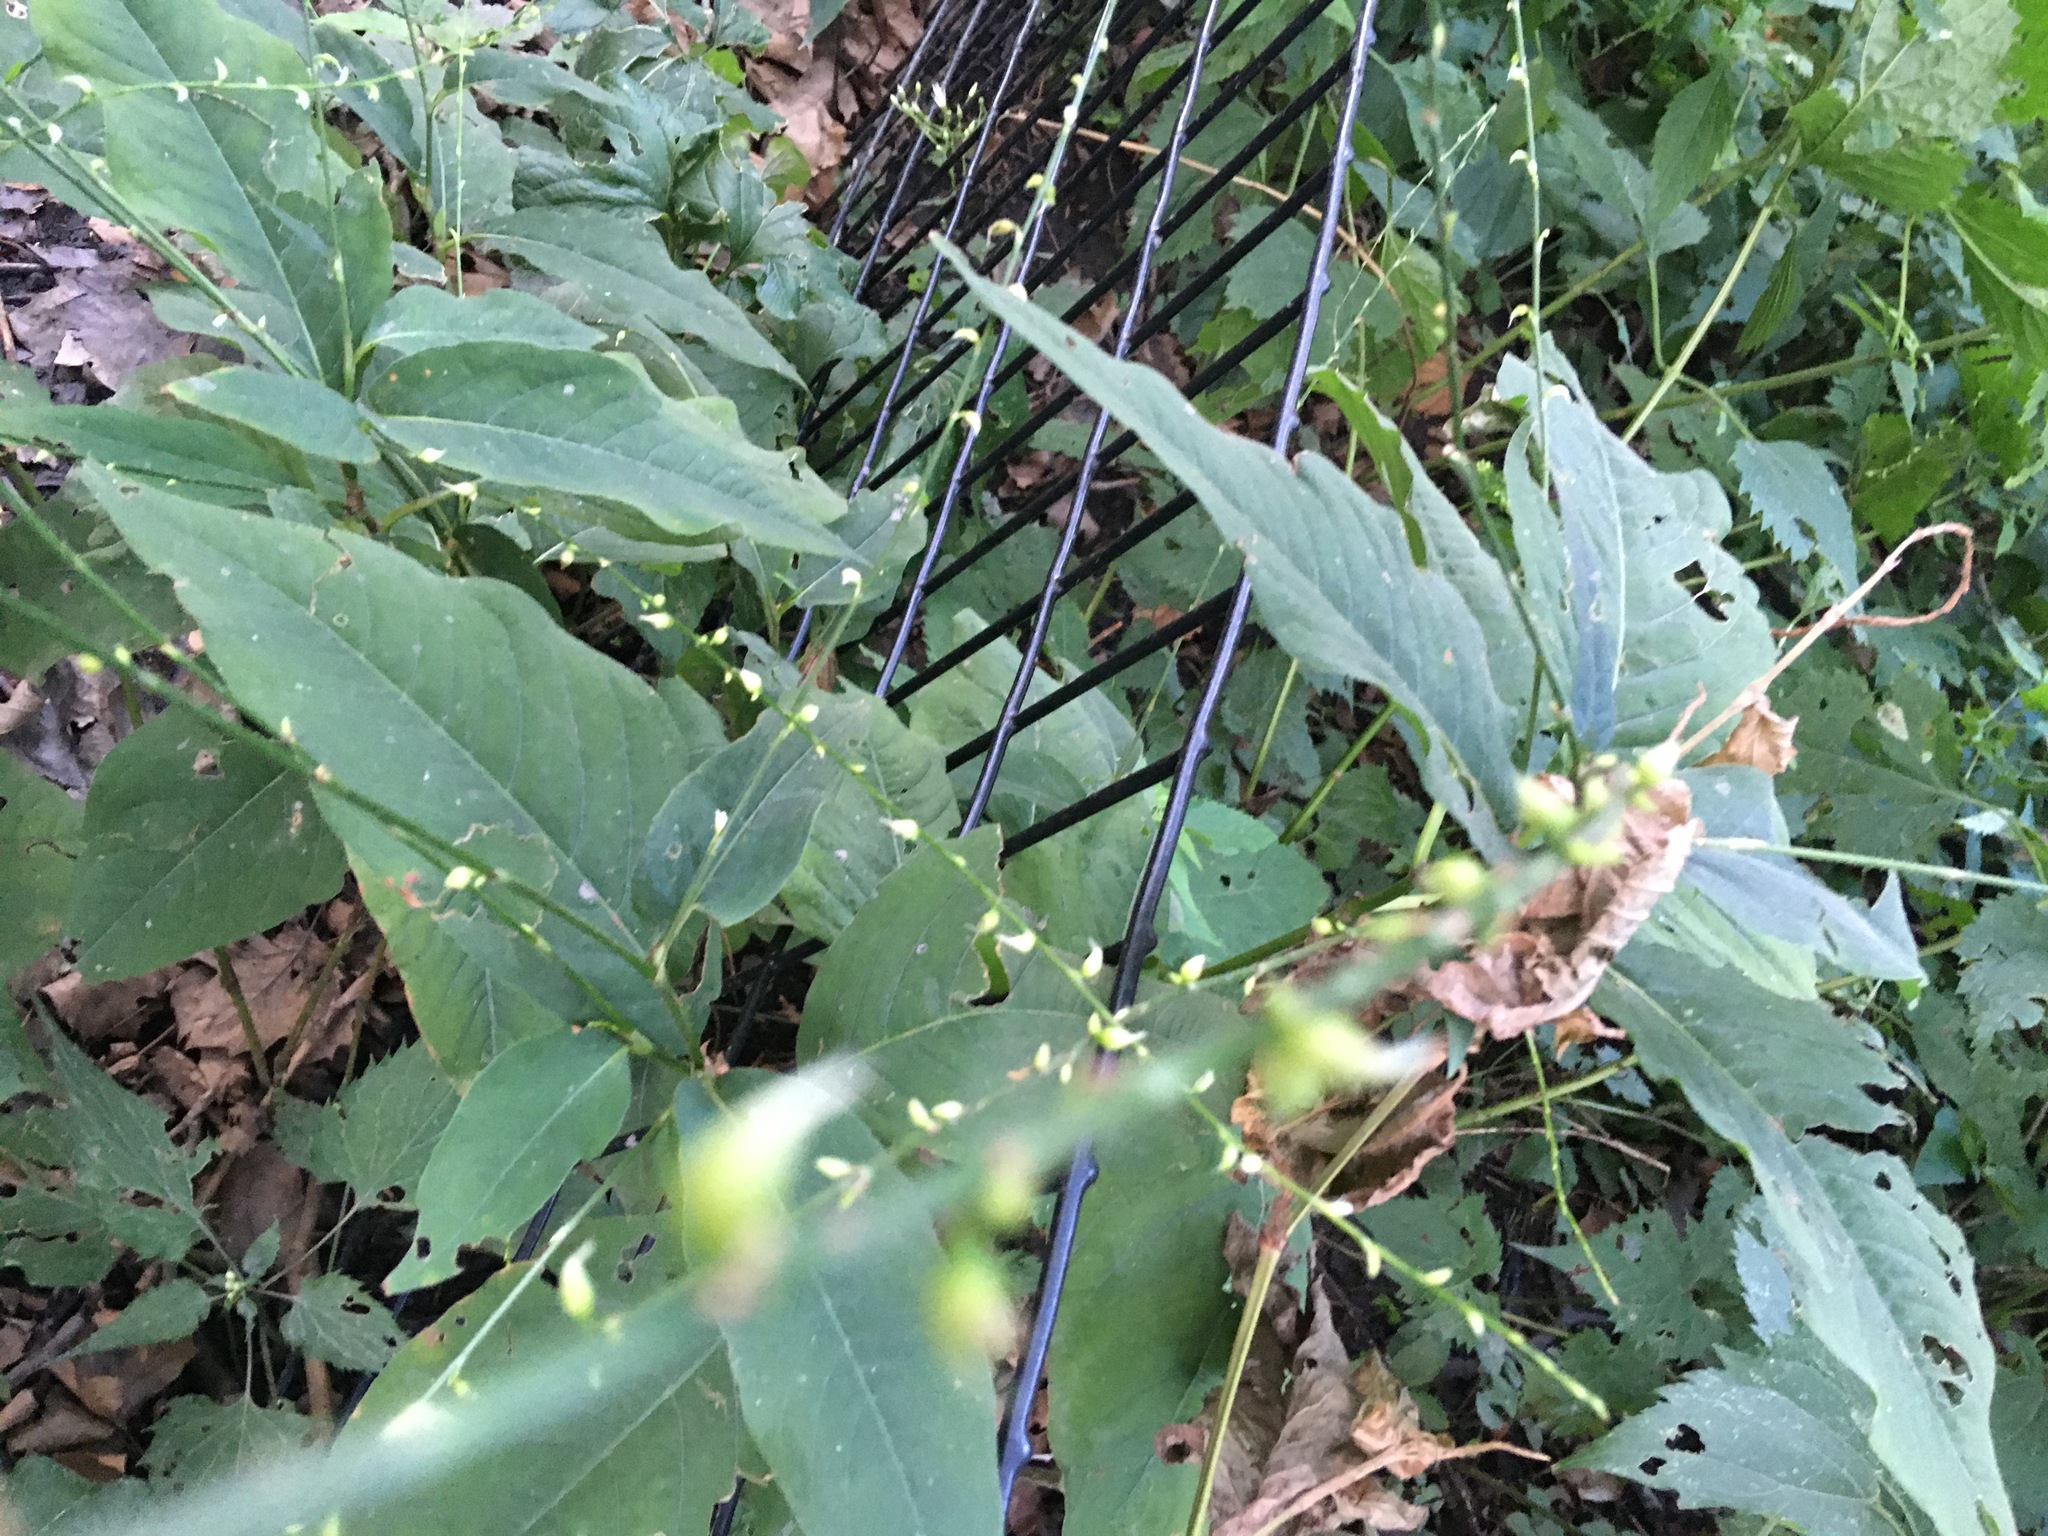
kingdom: Plantae
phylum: Tracheophyta
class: Magnoliopsida
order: Caryophyllales
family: Polygonaceae
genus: Persicaria
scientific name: Persicaria virginiana
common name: Jumpseed
